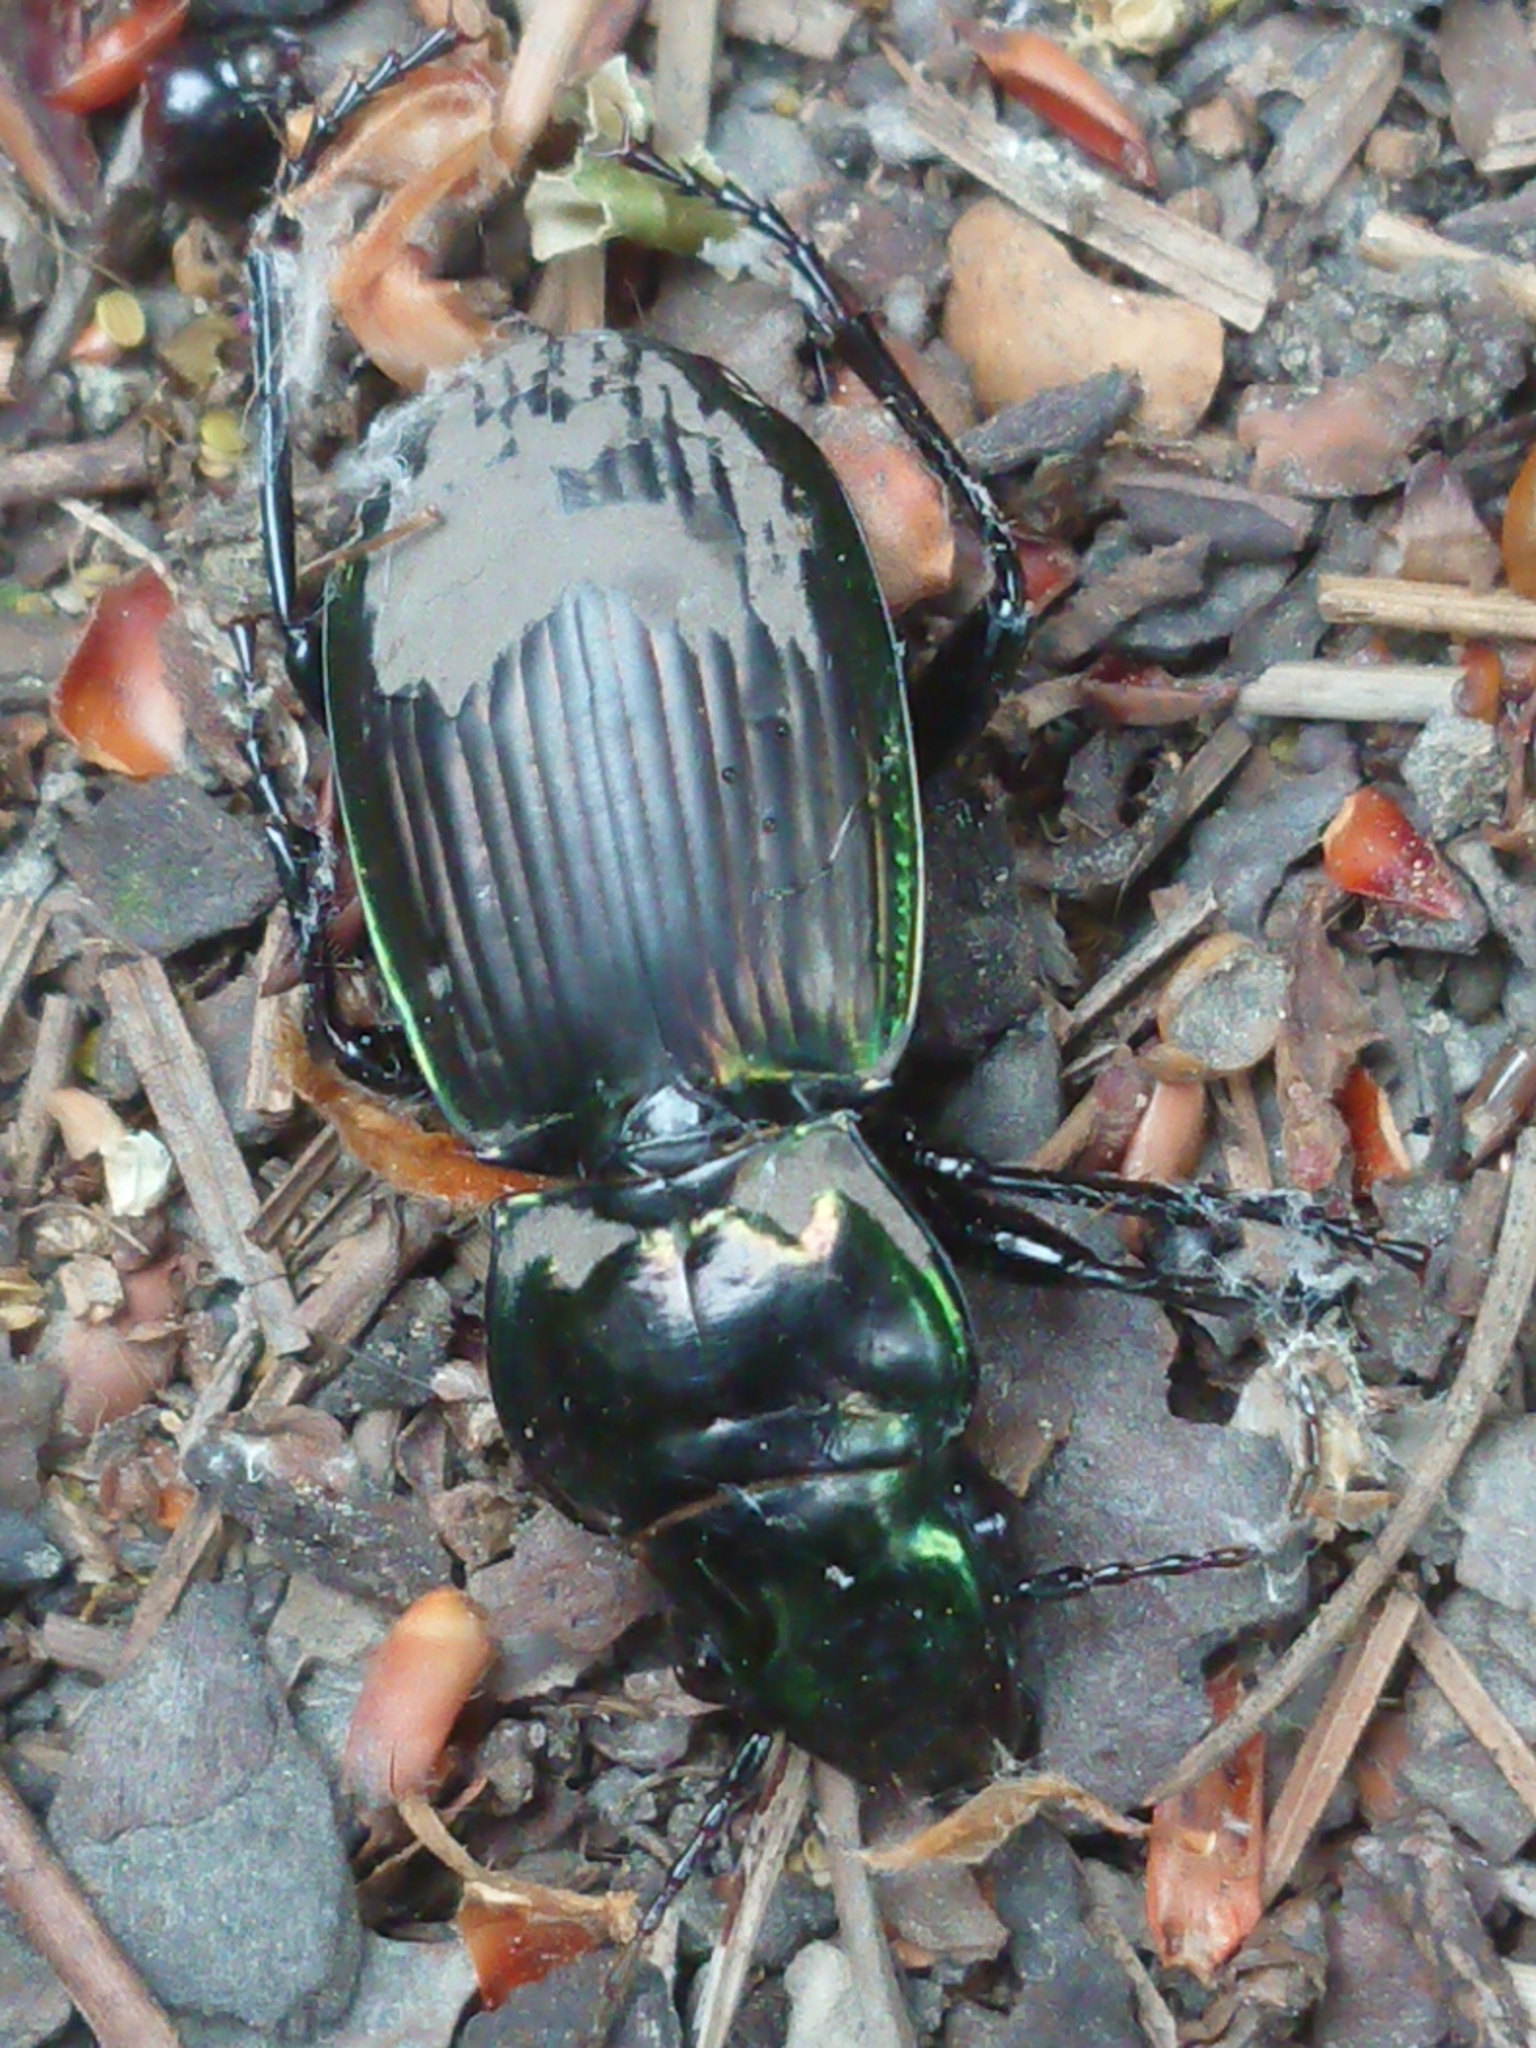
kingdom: Animalia
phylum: Arthropoda
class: Insecta
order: Coleoptera
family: Carabidae
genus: Megadromus
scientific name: Megadromus antarcticus
